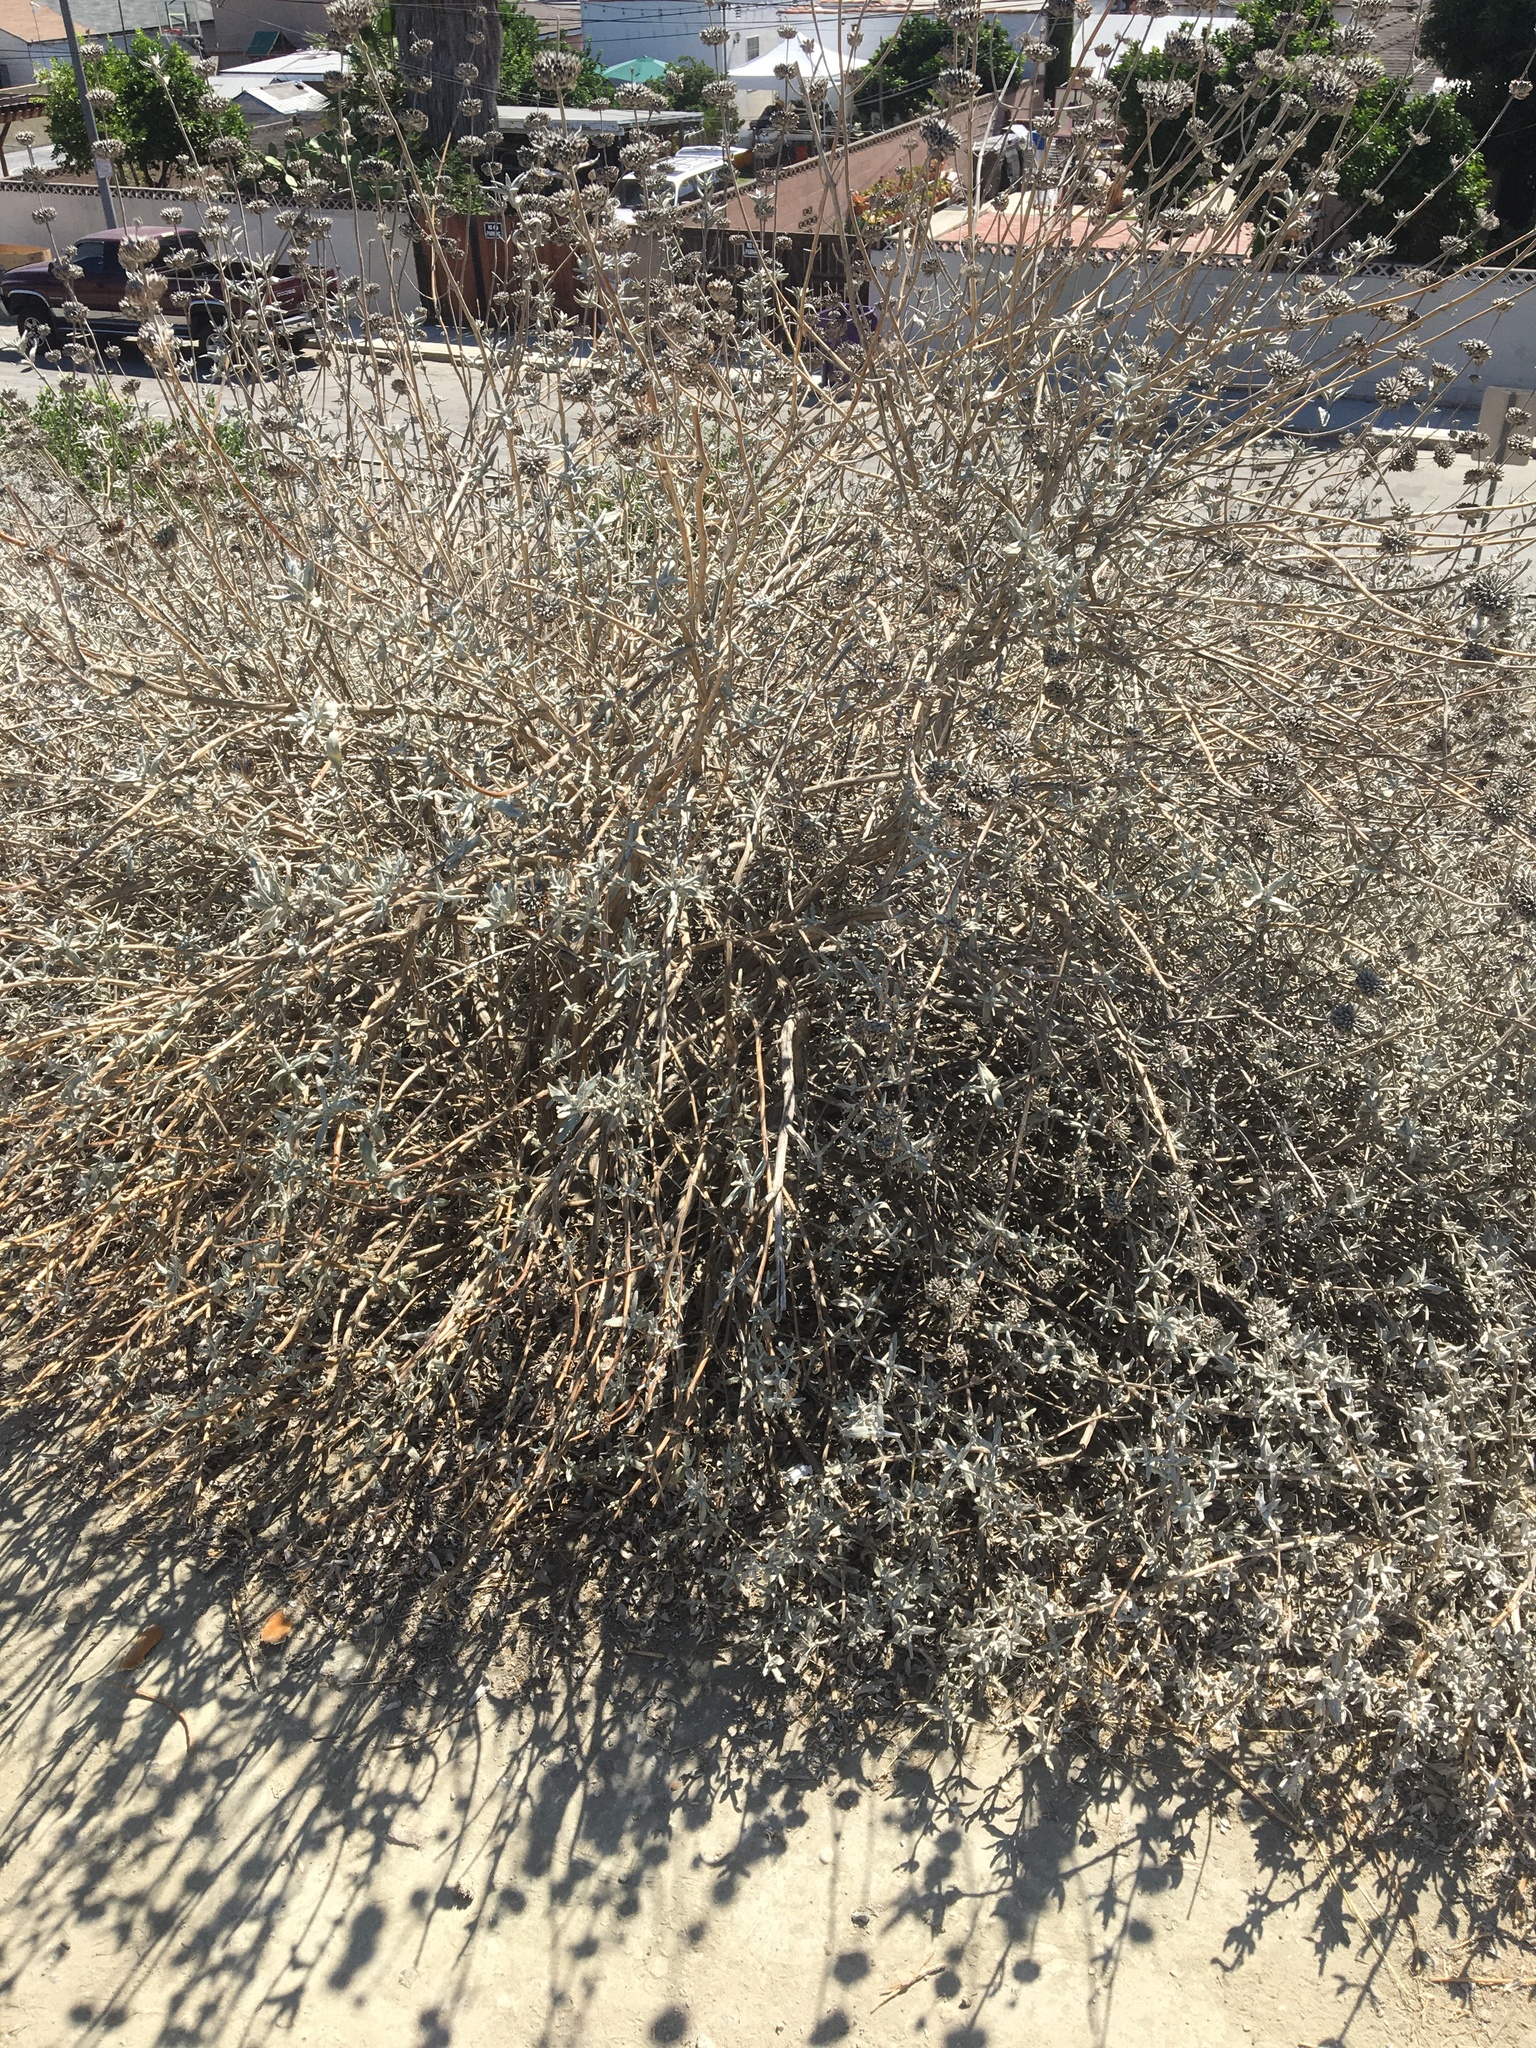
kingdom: Plantae
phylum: Tracheophyta
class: Magnoliopsida
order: Lamiales
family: Lamiaceae
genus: Salvia
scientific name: Salvia leucophylla
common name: Purple sage
